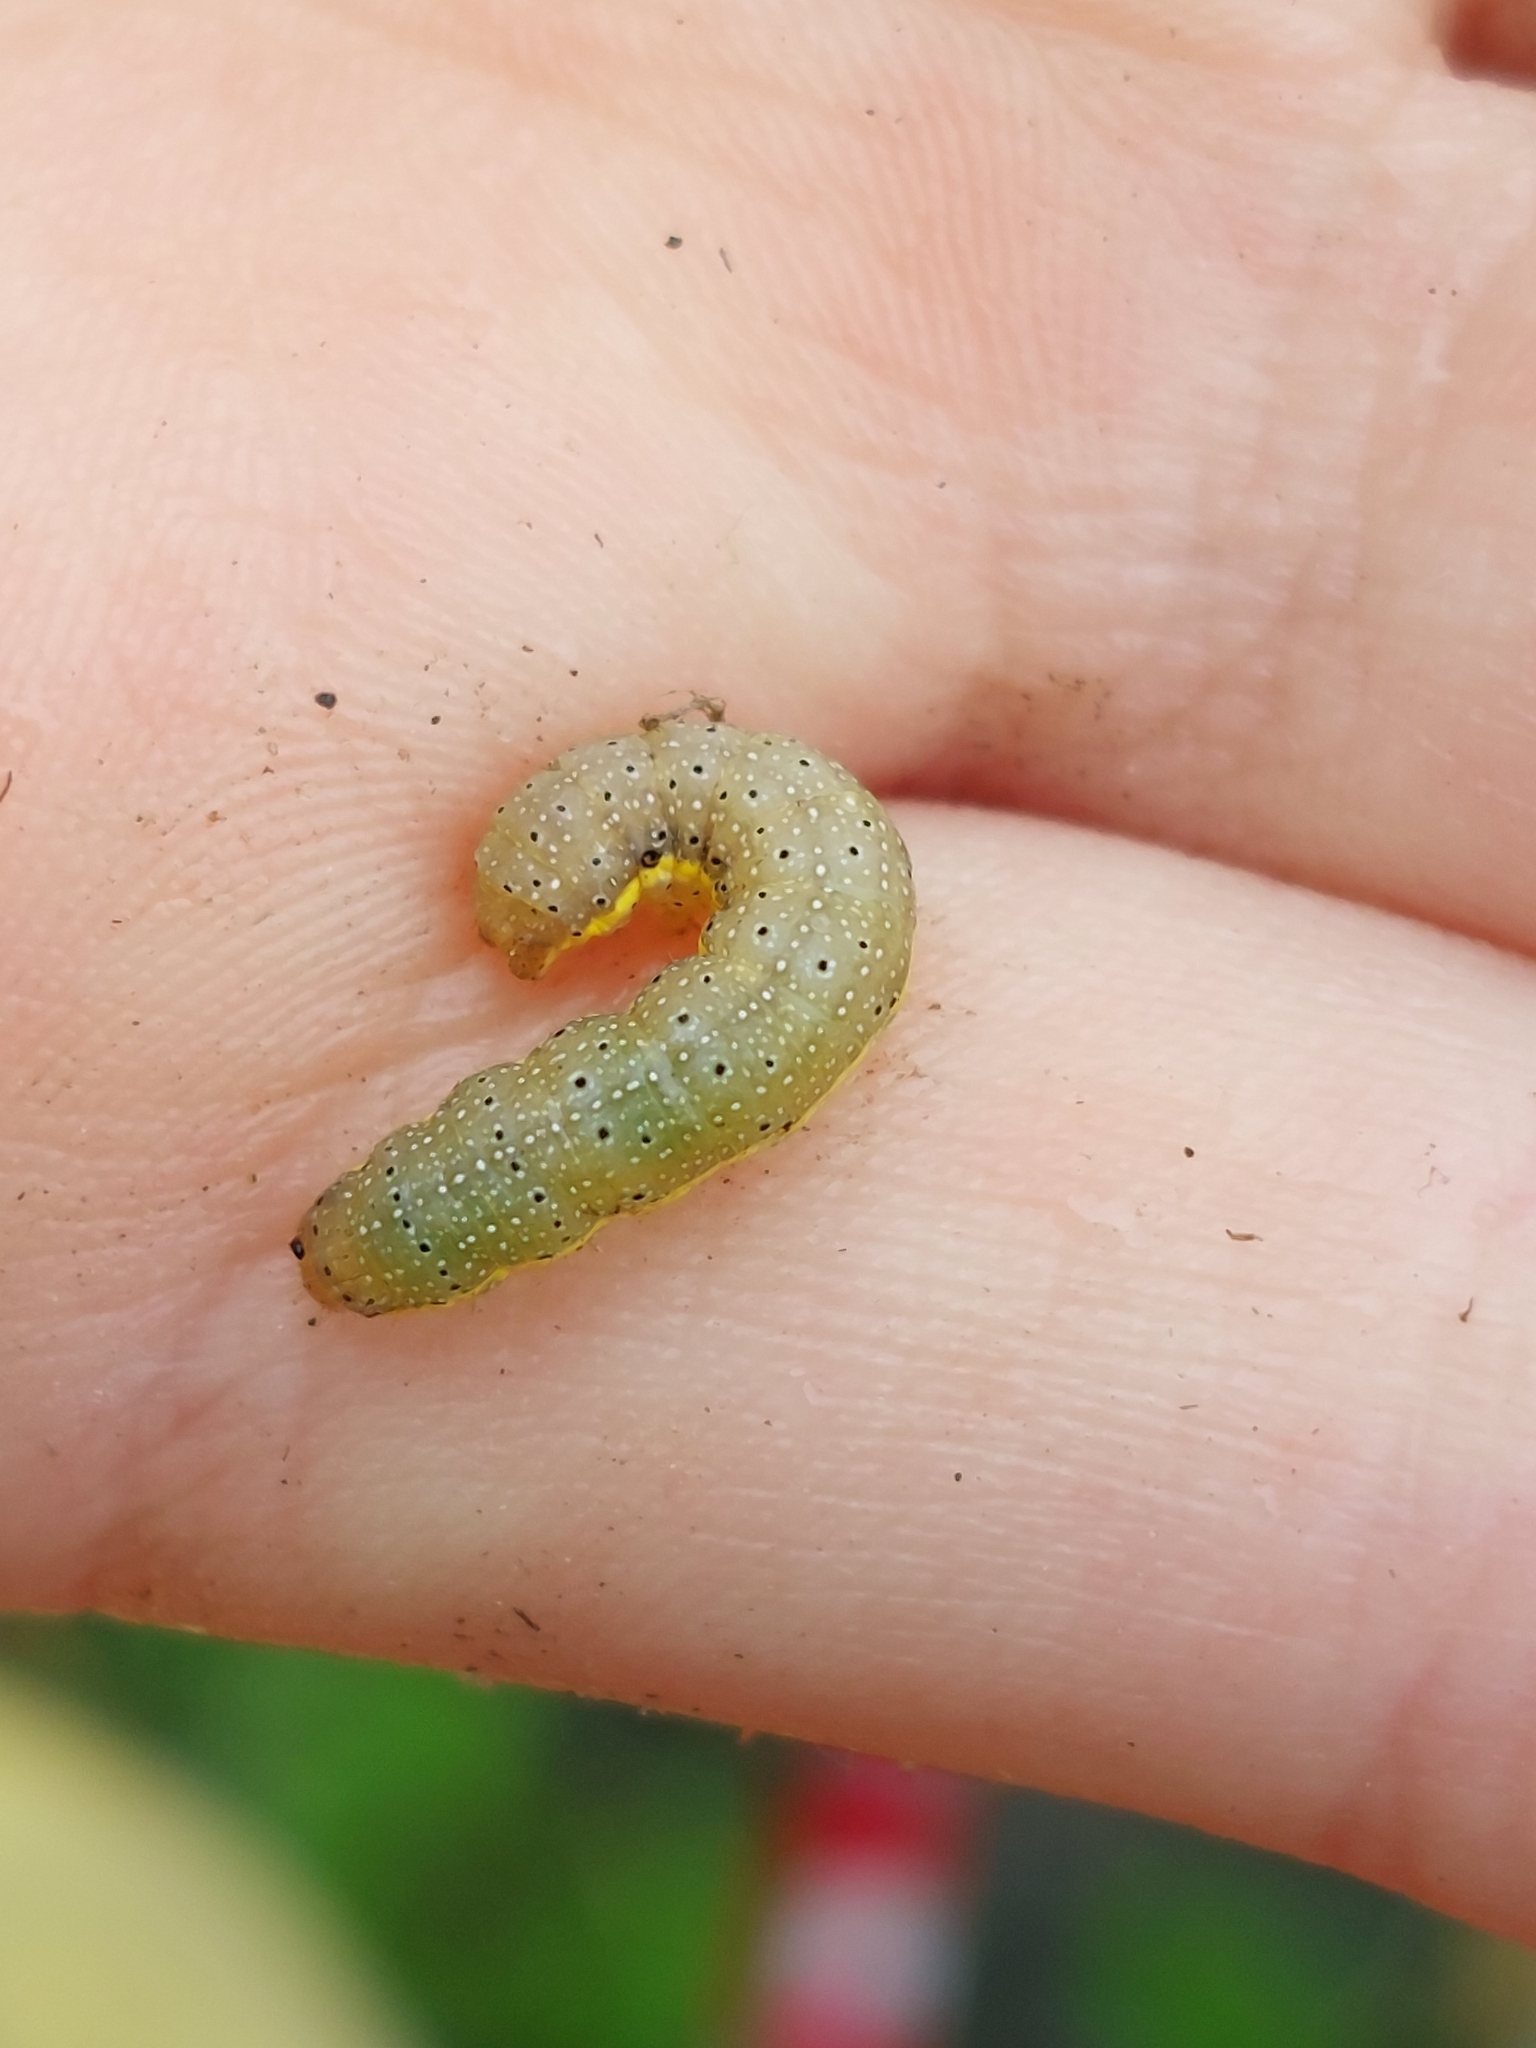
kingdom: Animalia
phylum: Arthropoda
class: Insecta
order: Lepidoptera
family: Noctuidae
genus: Lacanobia
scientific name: Lacanobia oleracea
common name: Bright-line brown-eye
